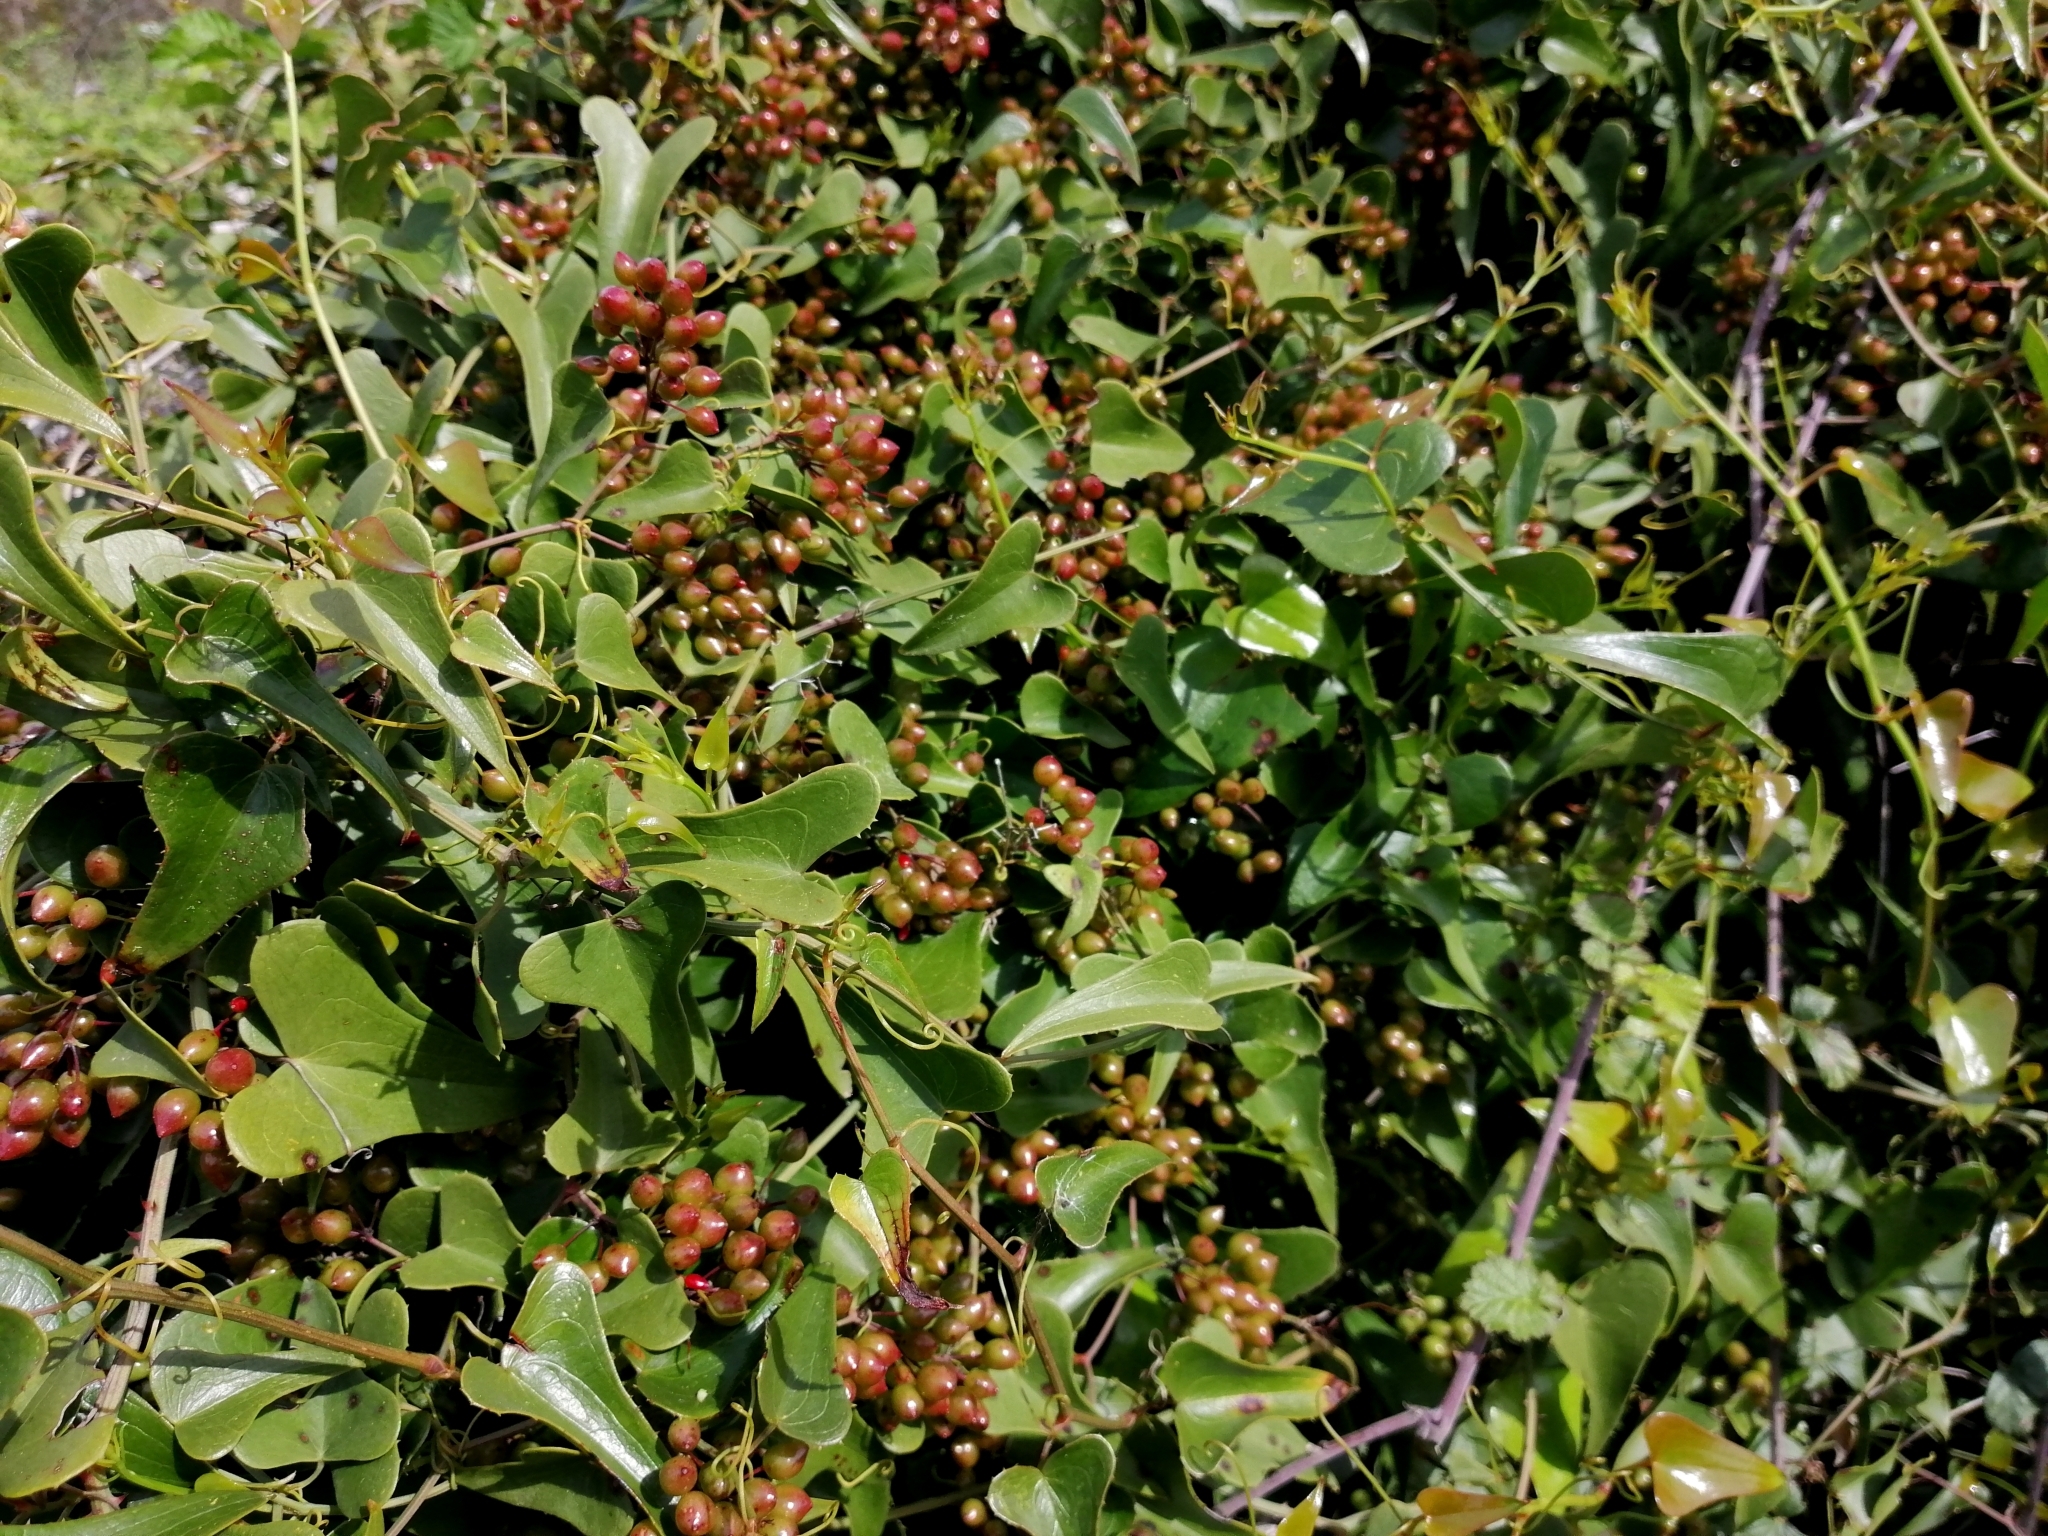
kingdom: Plantae
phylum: Tracheophyta
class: Liliopsida
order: Liliales
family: Smilacaceae
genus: Smilax
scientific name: Smilax aspera
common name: Common smilax
